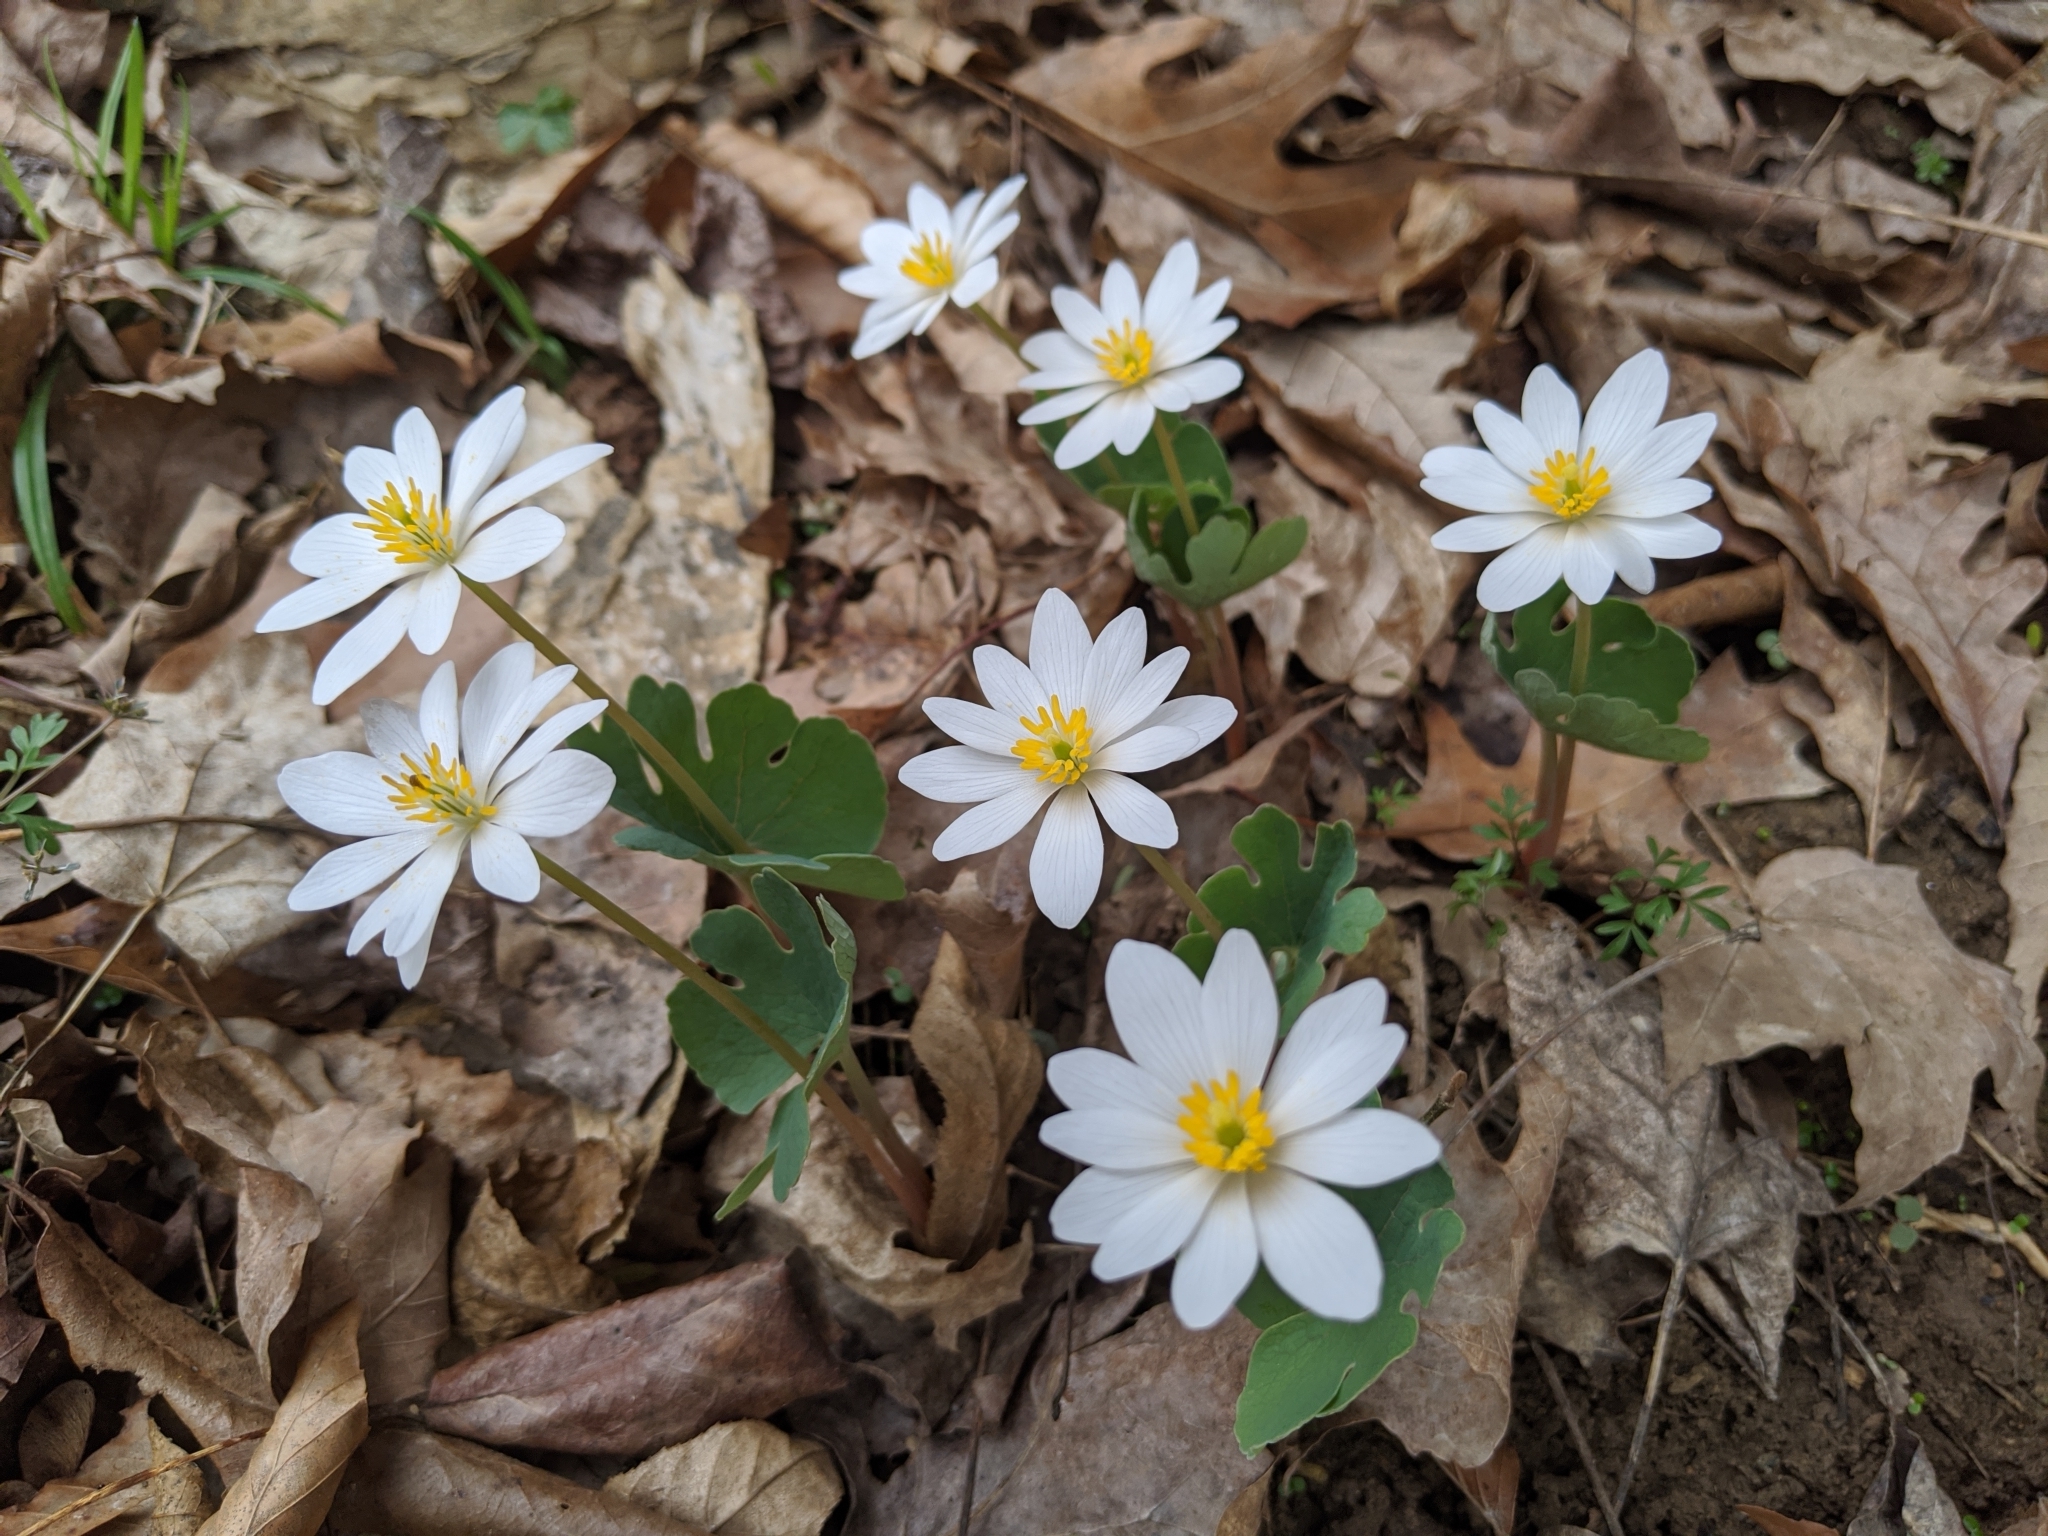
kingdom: Plantae
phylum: Tracheophyta
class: Magnoliopsida
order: Ranunculales
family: Papaveraceae
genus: Sanguinaria
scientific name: Sanguinaria canadensis
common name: Bloodroot
